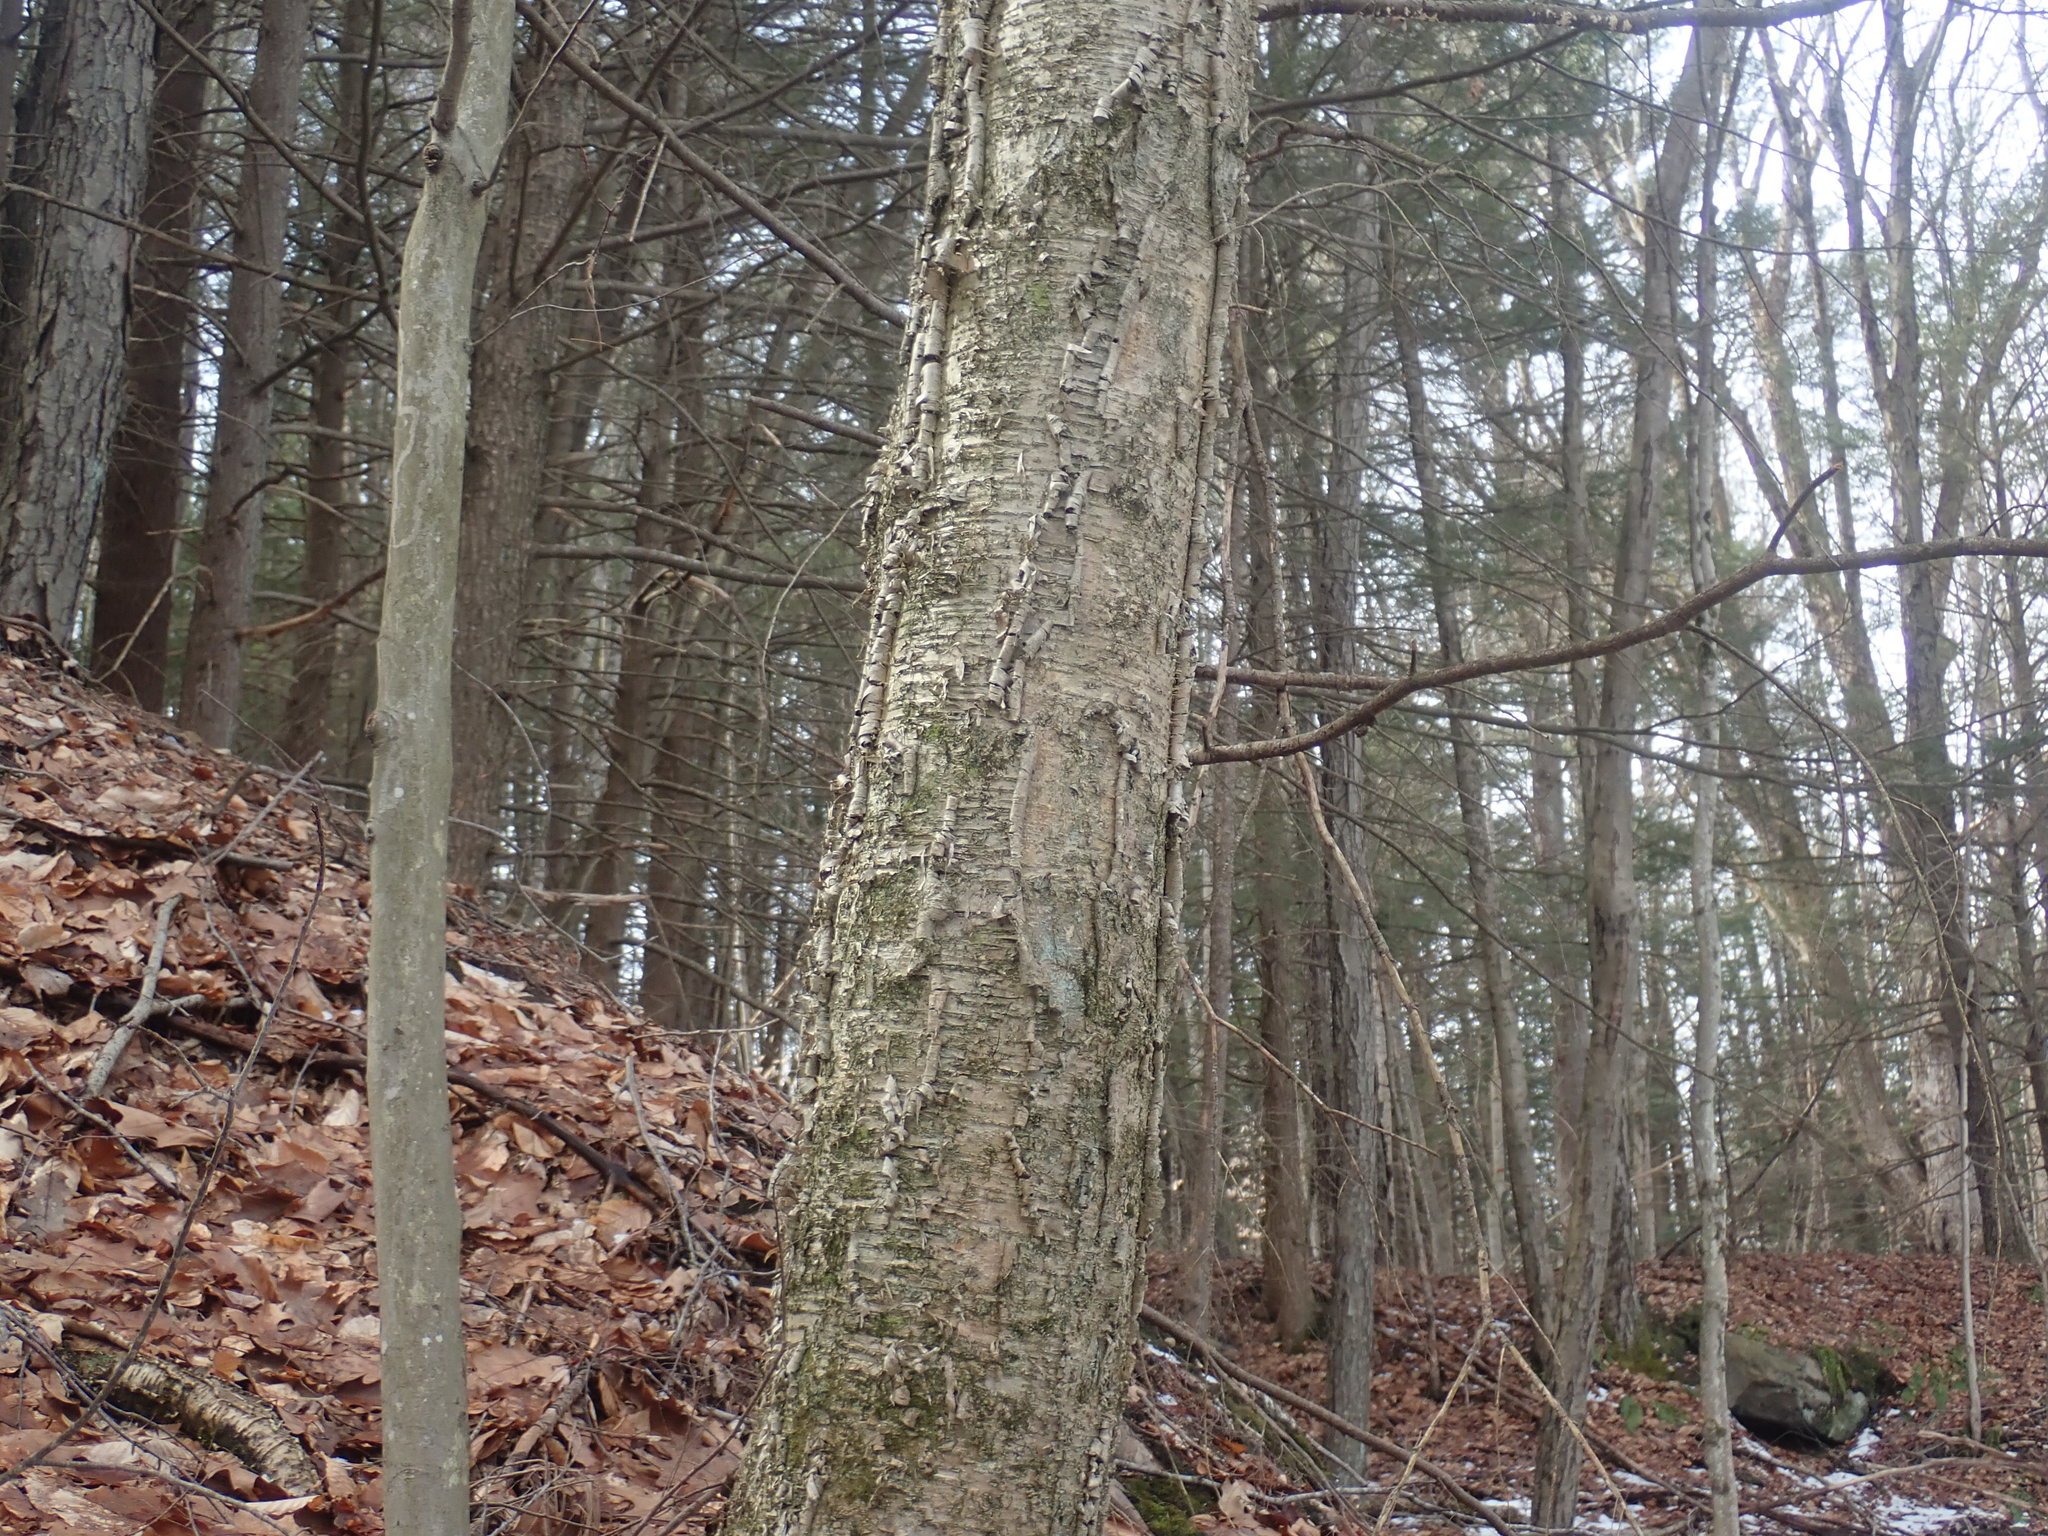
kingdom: Plantae
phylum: Tracheophyta
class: Magnoliopsida
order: Fagales
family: Betulaceae
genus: Betula
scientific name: Betula alleghaniensis
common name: Yellow birch
